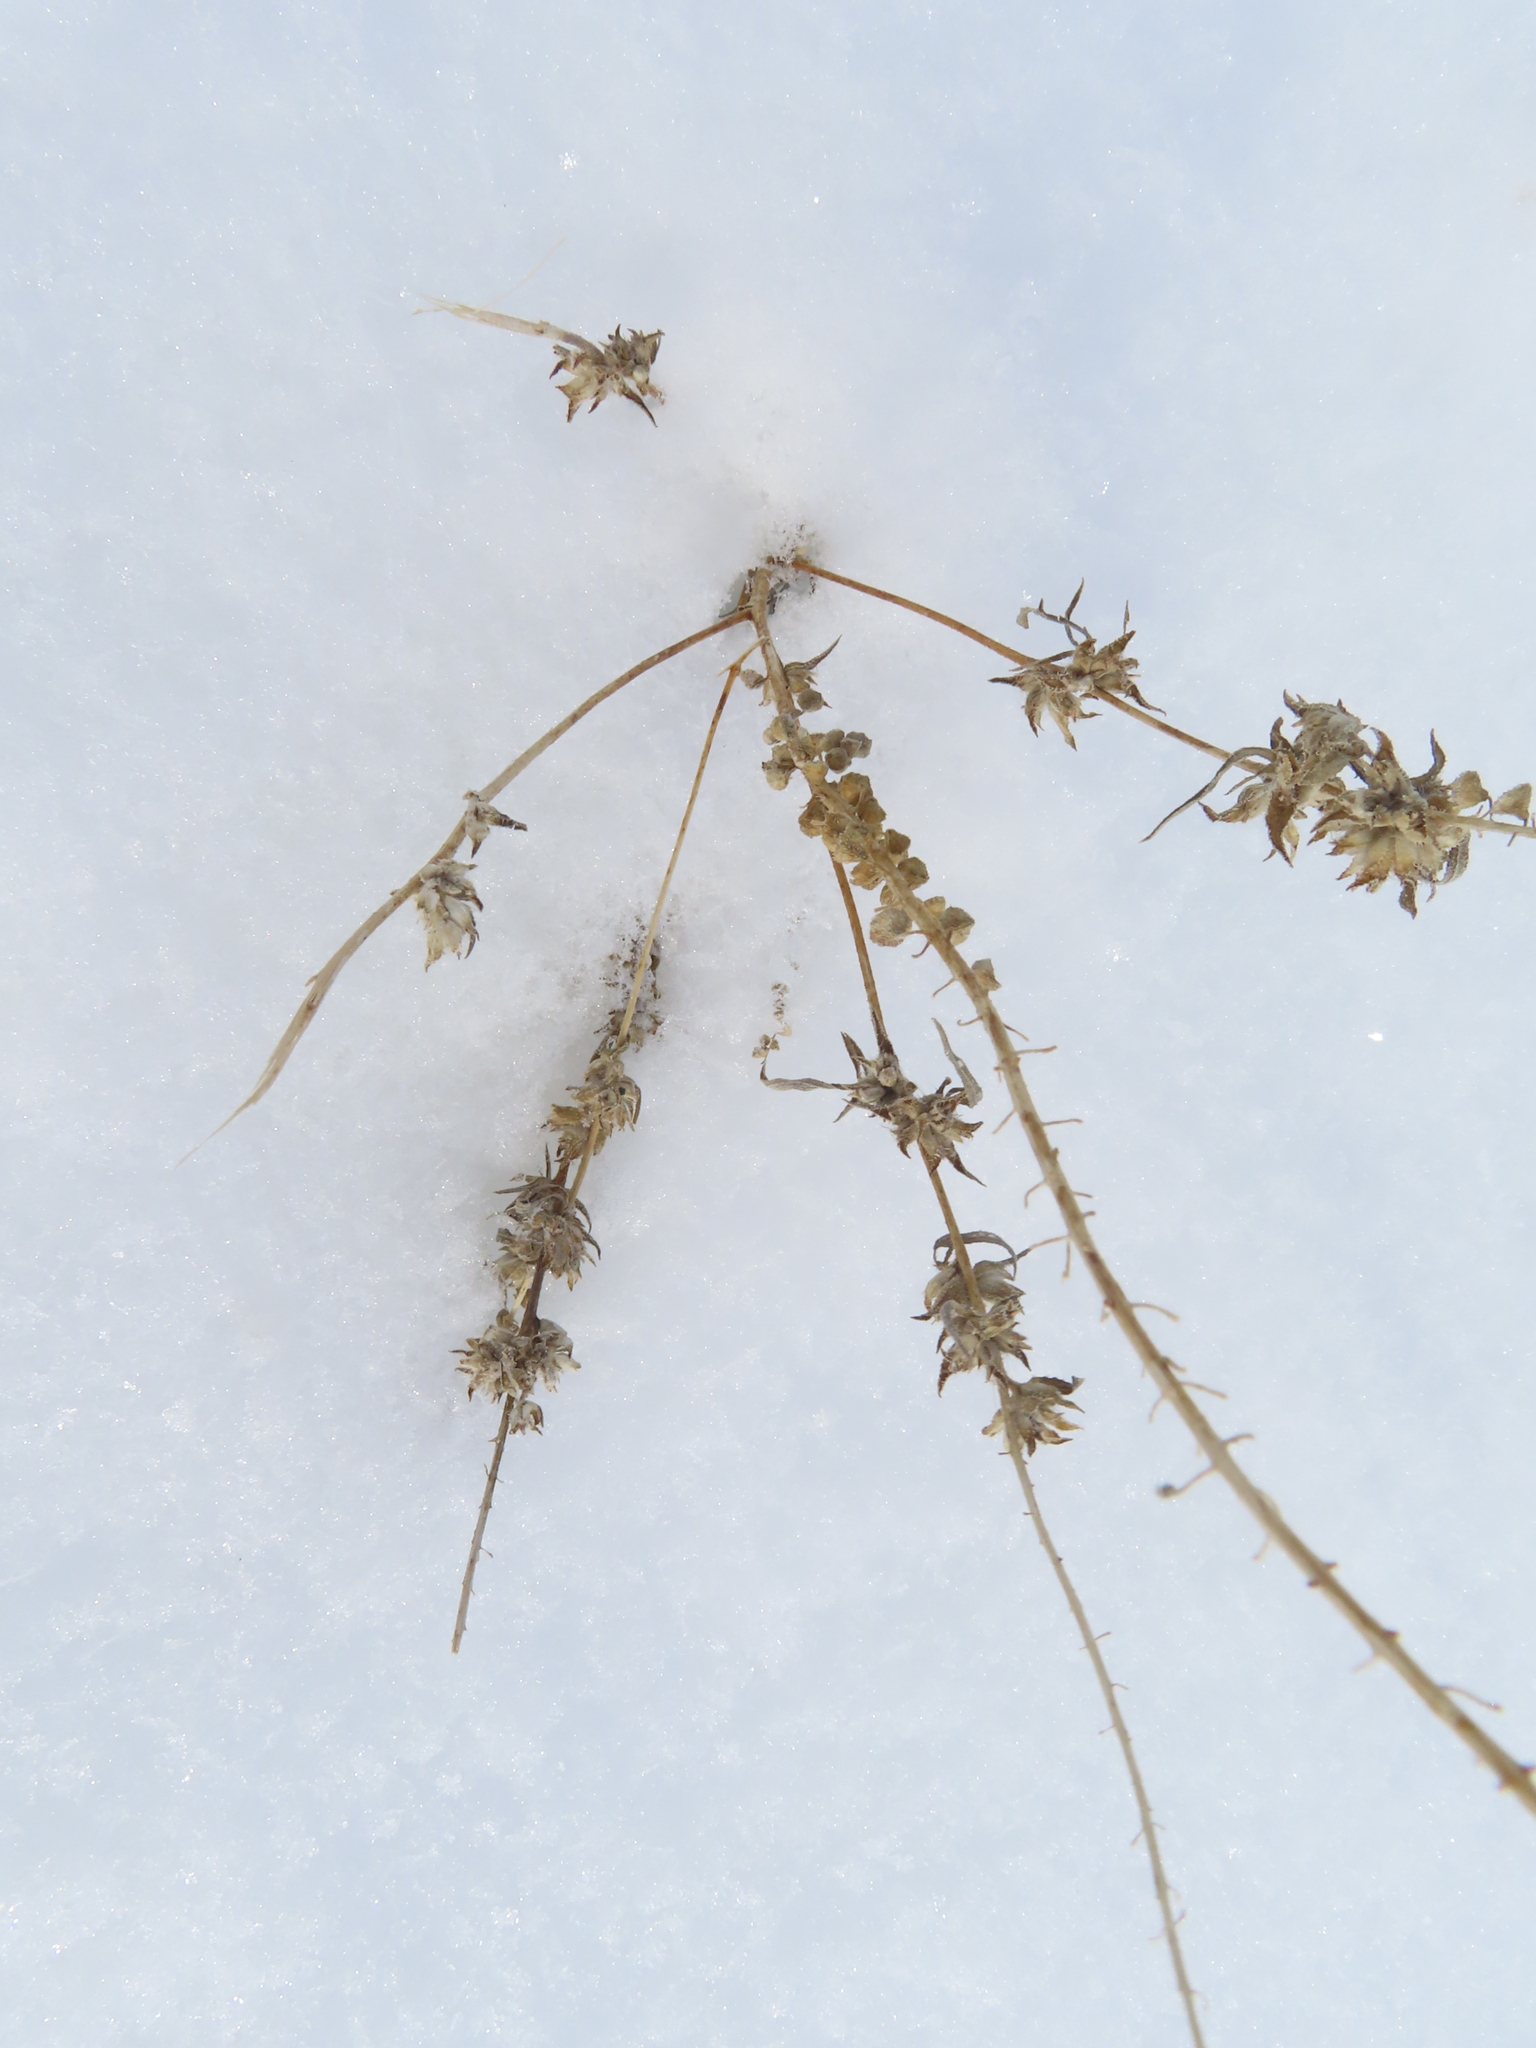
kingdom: Plantae
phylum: Tracheophyta
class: Magnoliopsida
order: Asterales
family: Asteraceae
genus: Ambrosia
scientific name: Ambrosia trifida
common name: Giant ragweed
